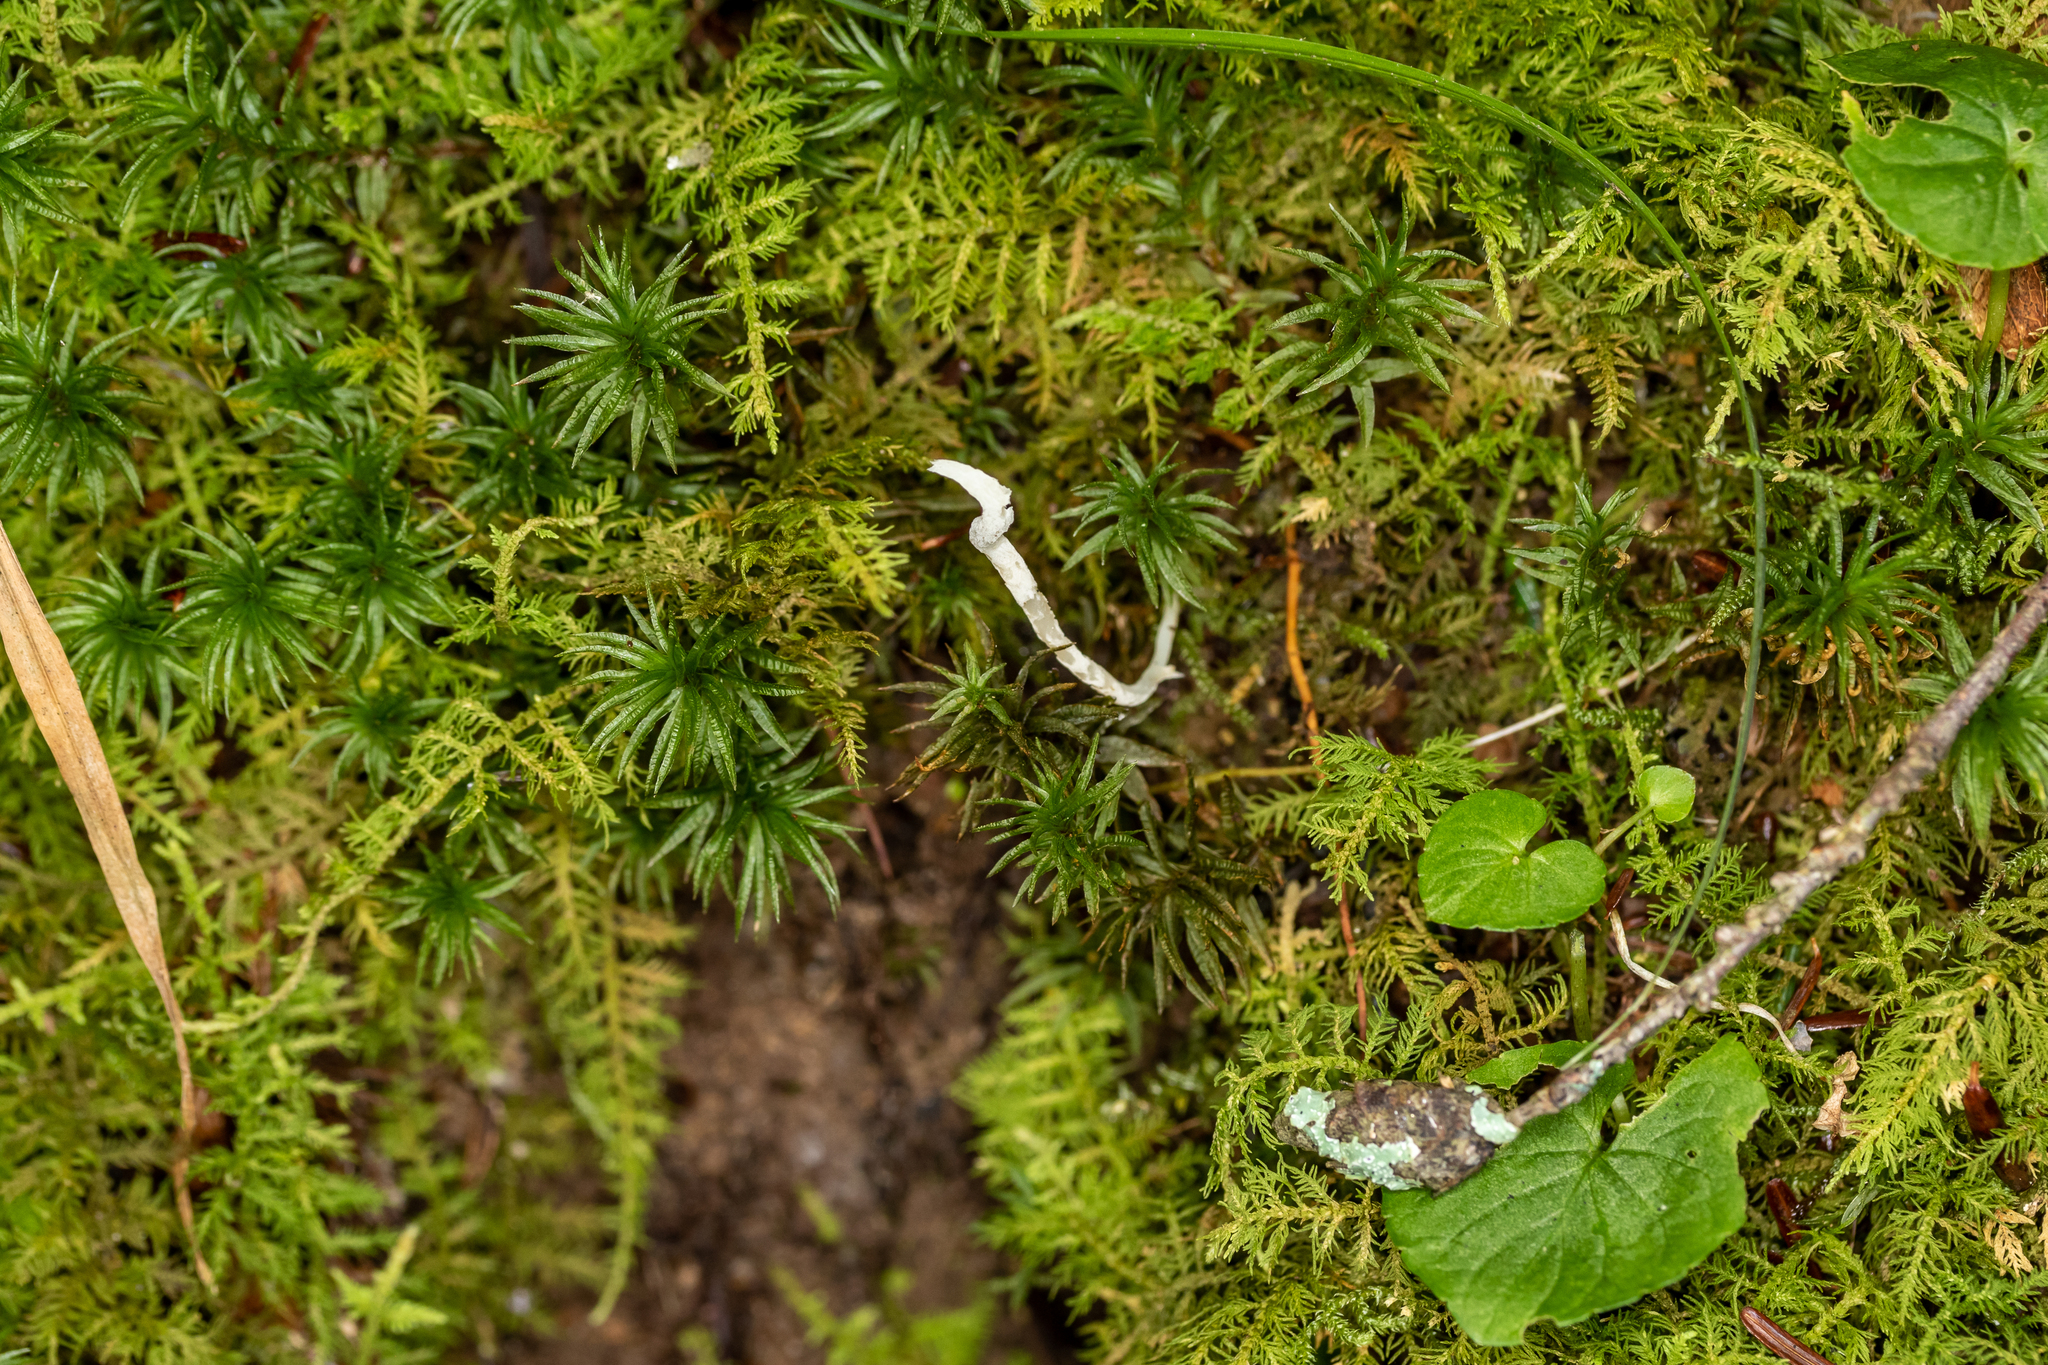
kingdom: Fungi
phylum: Basidiomycota
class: Agaricomycetes
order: Agaricales
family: Clavariaceae
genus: Clavaria
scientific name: Clavaria fragilis
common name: White spindles
